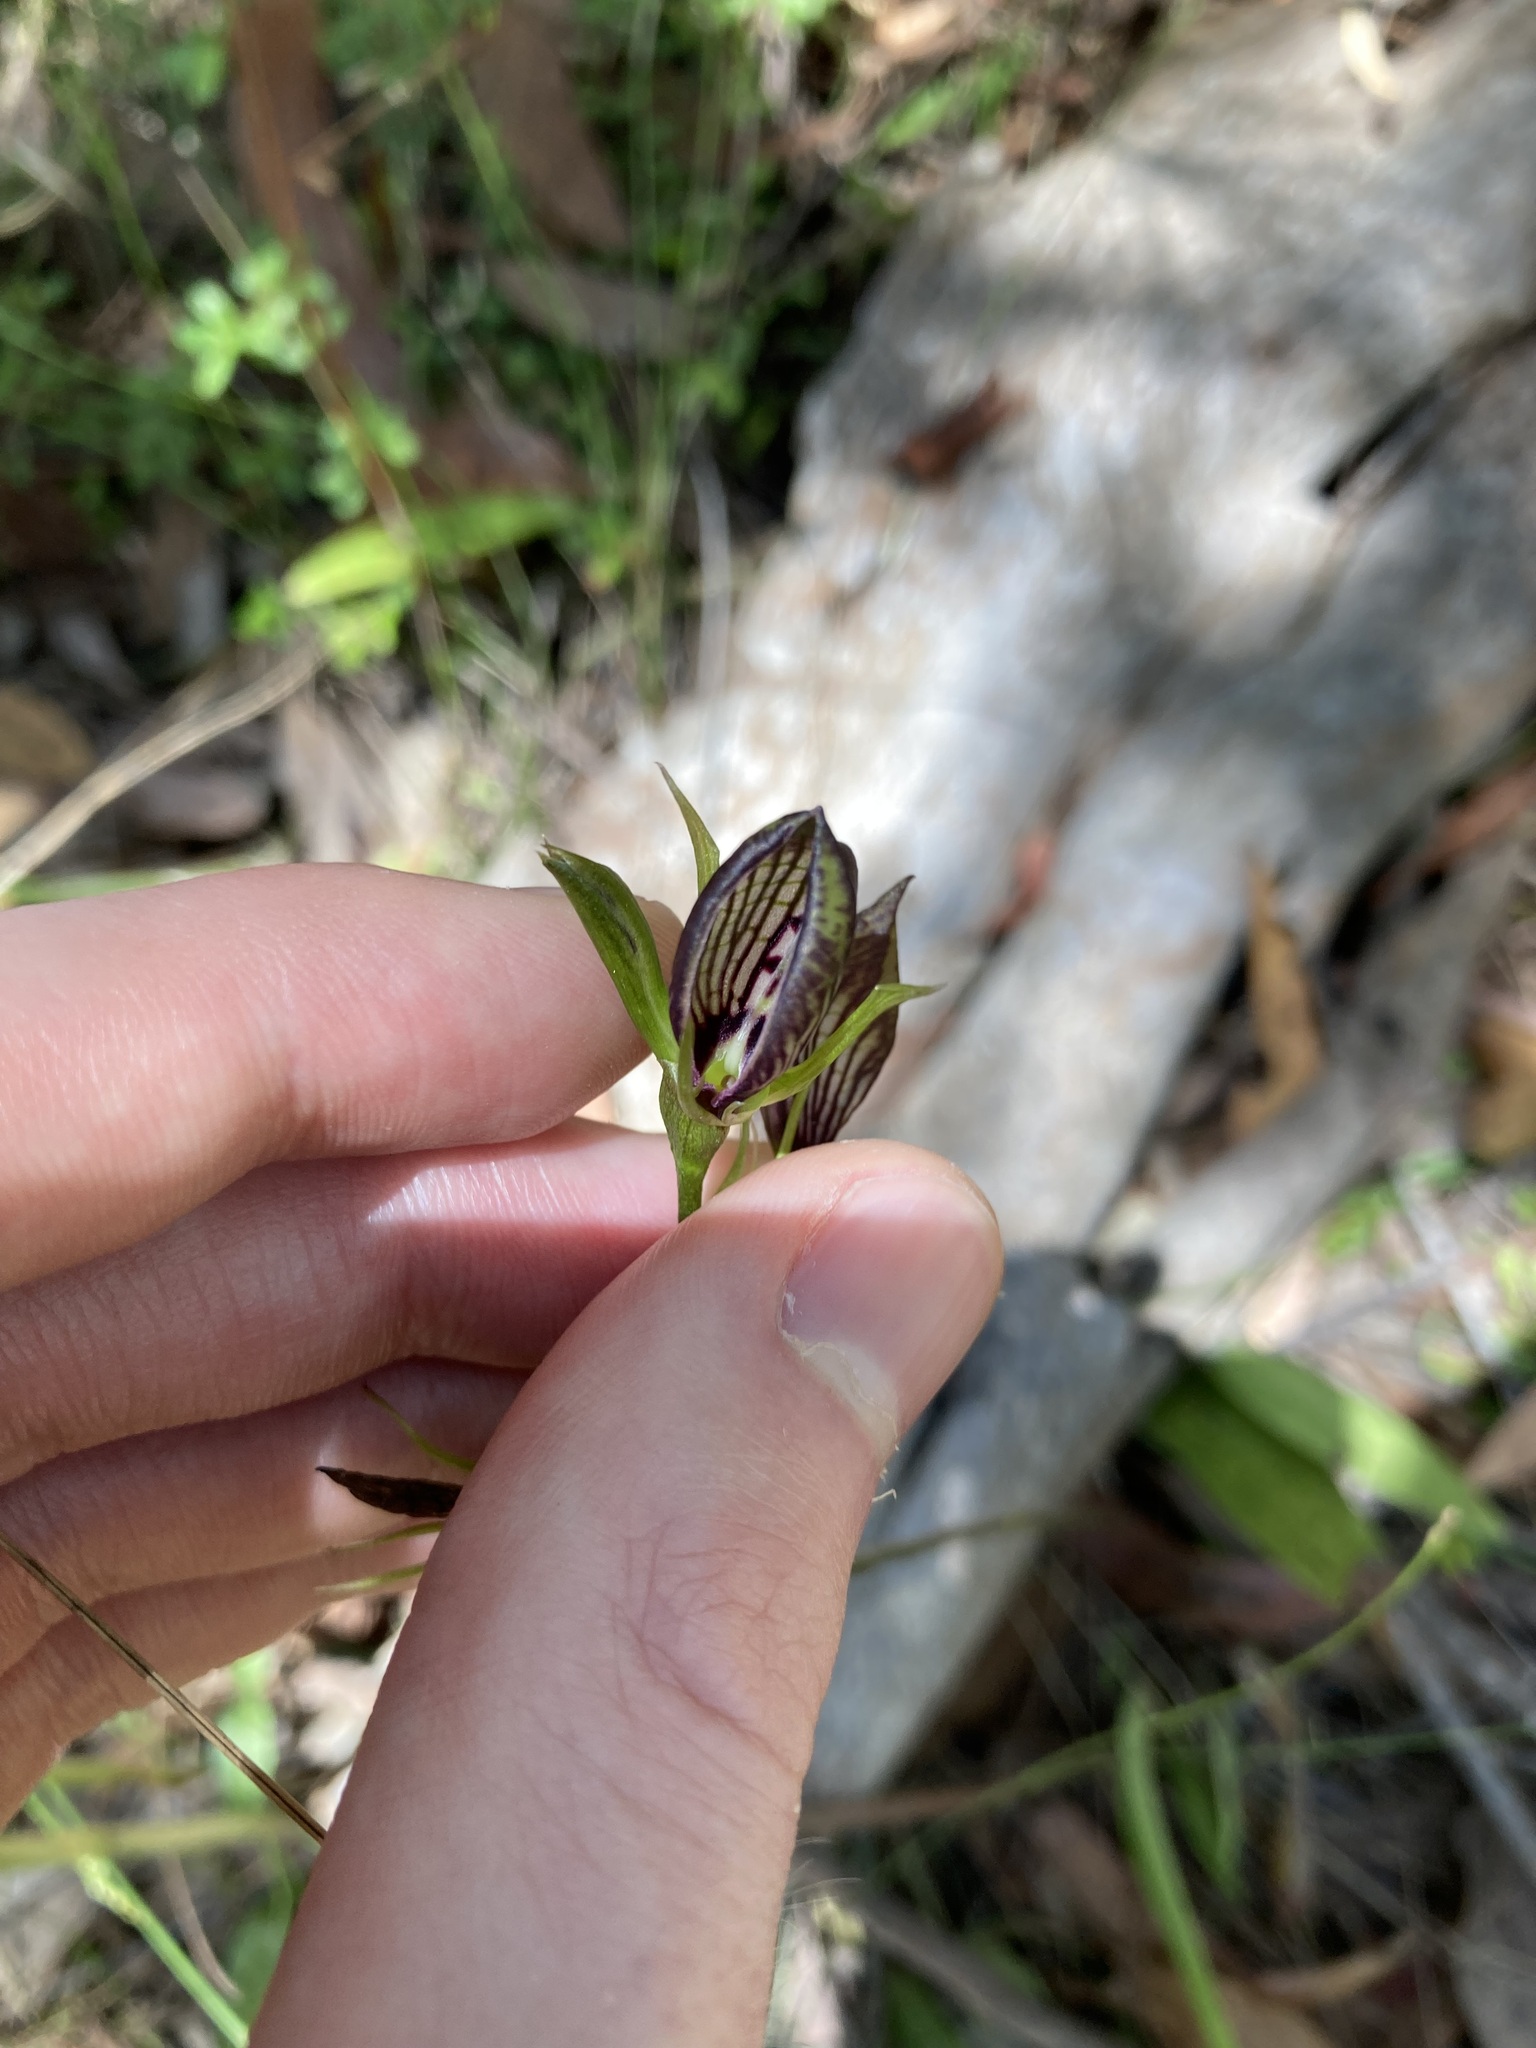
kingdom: Plantae
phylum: Tracheophyta
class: Liliopsida
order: Asparagales
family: Orchidaceae
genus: Cryptostylis
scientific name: Cryptostylis erecta
